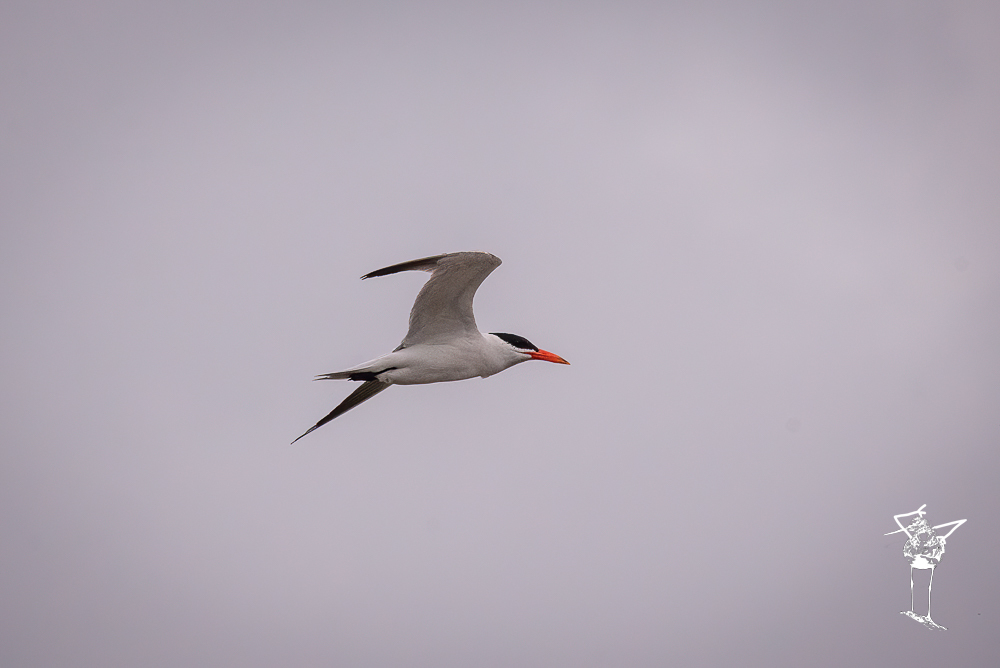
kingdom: Animalia
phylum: Chordata
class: Aves
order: Charadriiformes
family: Laridae
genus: Hydroprogne
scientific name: Hydroprogne caspia
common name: Caspian tern
